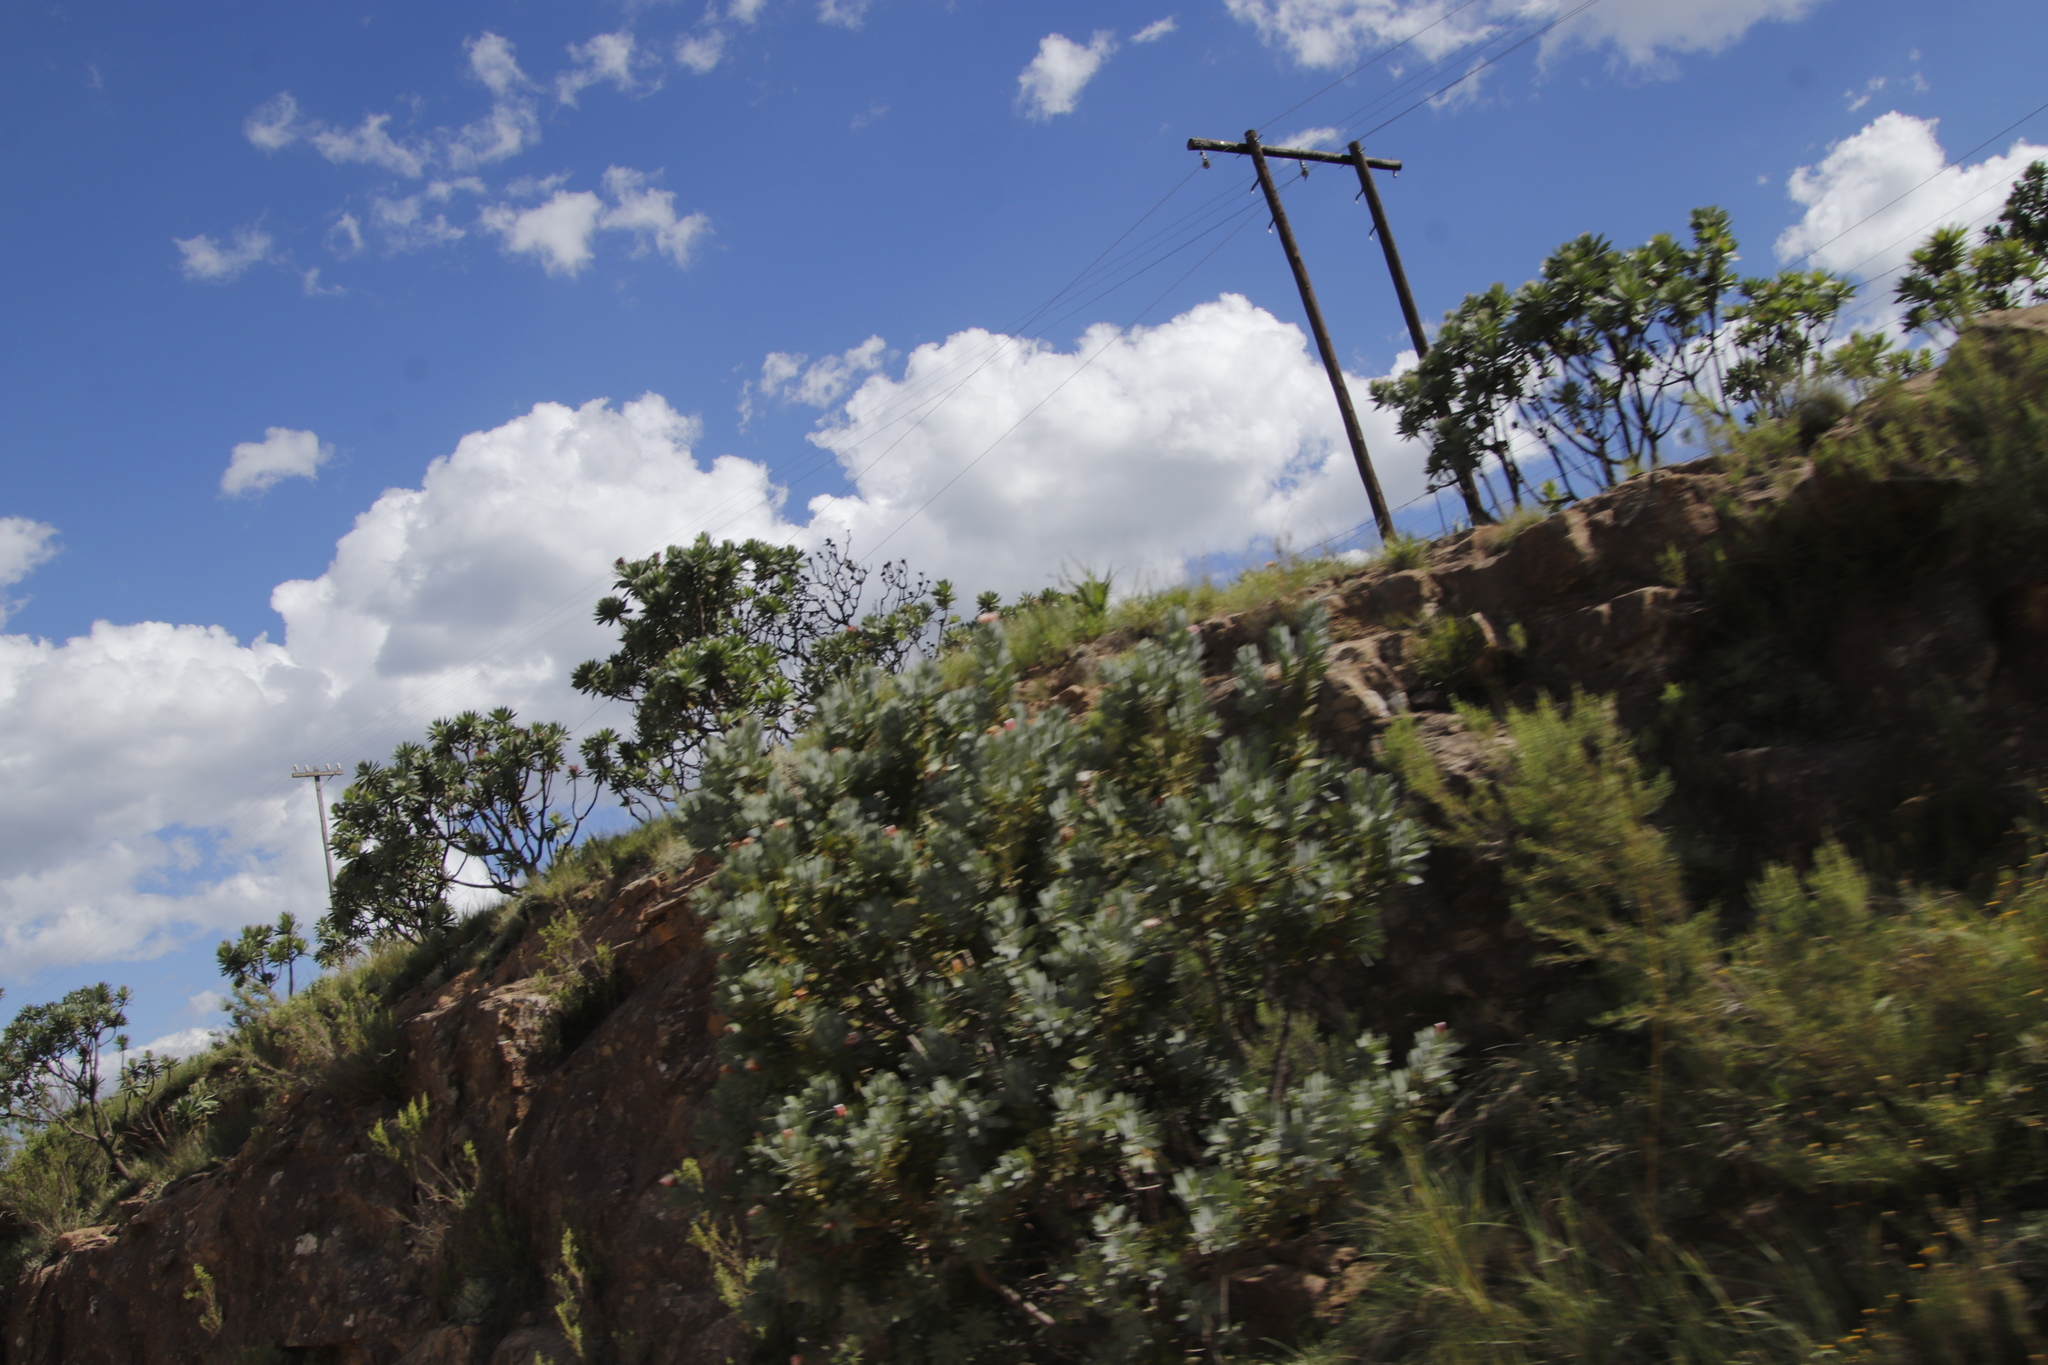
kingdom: Plantae
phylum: Tracheophyta
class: Magnoliopsida
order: Proteales
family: Proteaceae
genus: Protea
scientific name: Protea roupelliae
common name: Silver sugarbush
